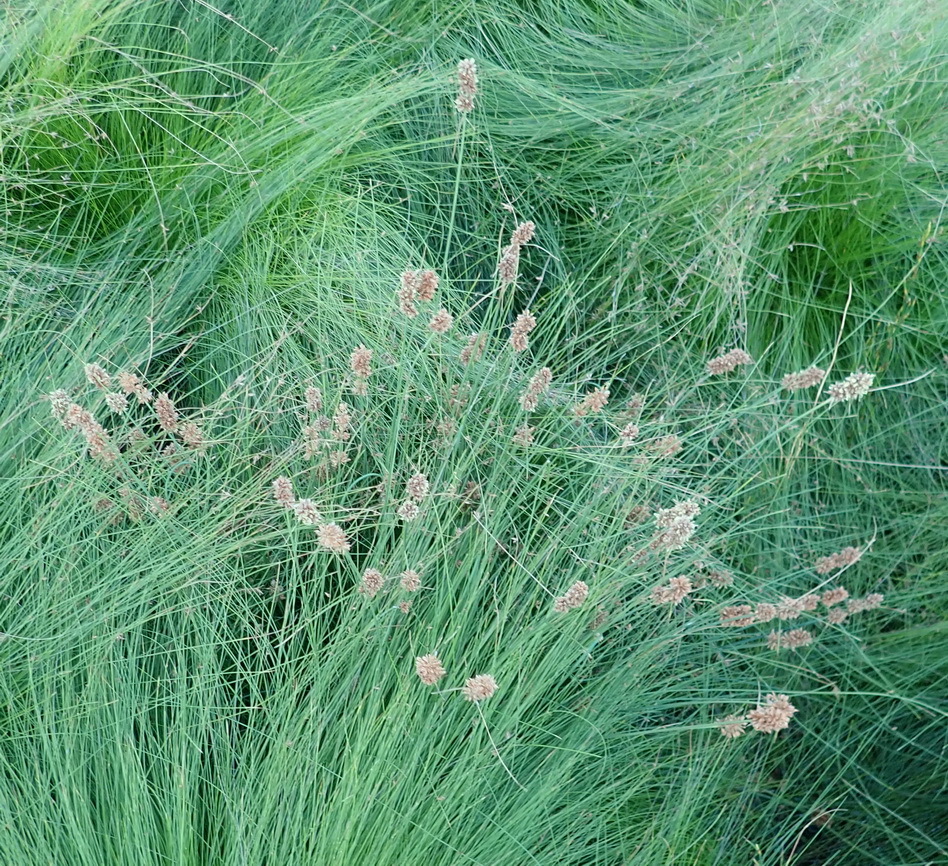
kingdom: Plantae
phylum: Tracheophyta
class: Liliopsida
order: Poales
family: Cyperaceae
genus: Ficinia
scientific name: Ficinia bulbosa
